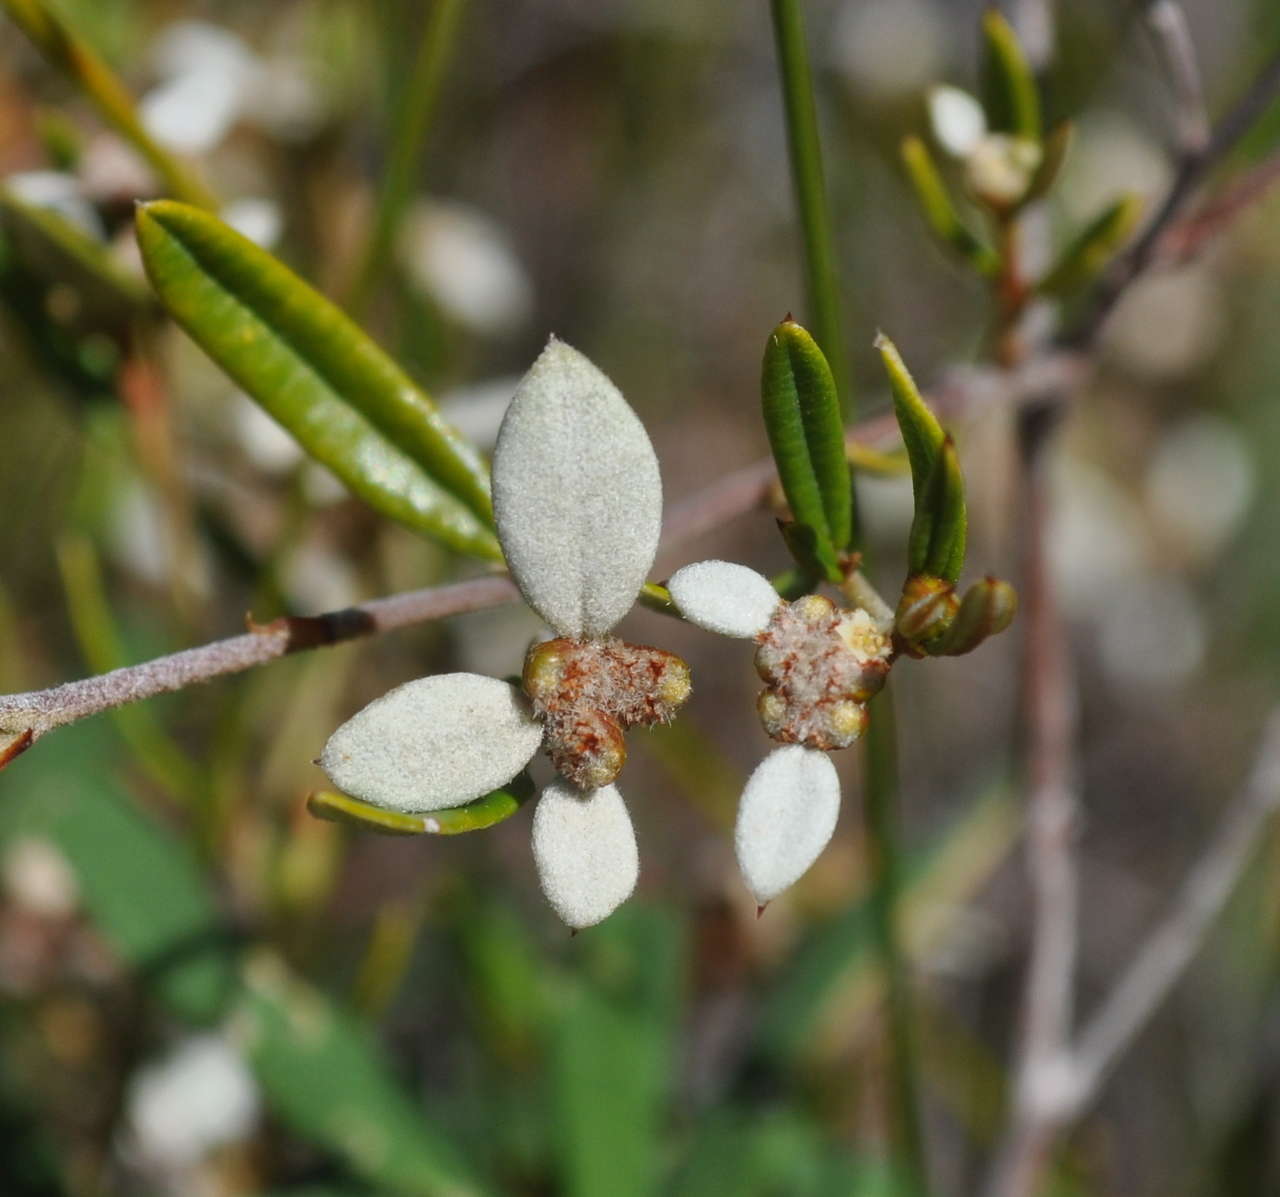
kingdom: Plantae
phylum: Tracheophyta
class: Magnoliopsida
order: Rosales
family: Rhamnaceae
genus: Spyridium
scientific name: Spyridium vexilliferum
